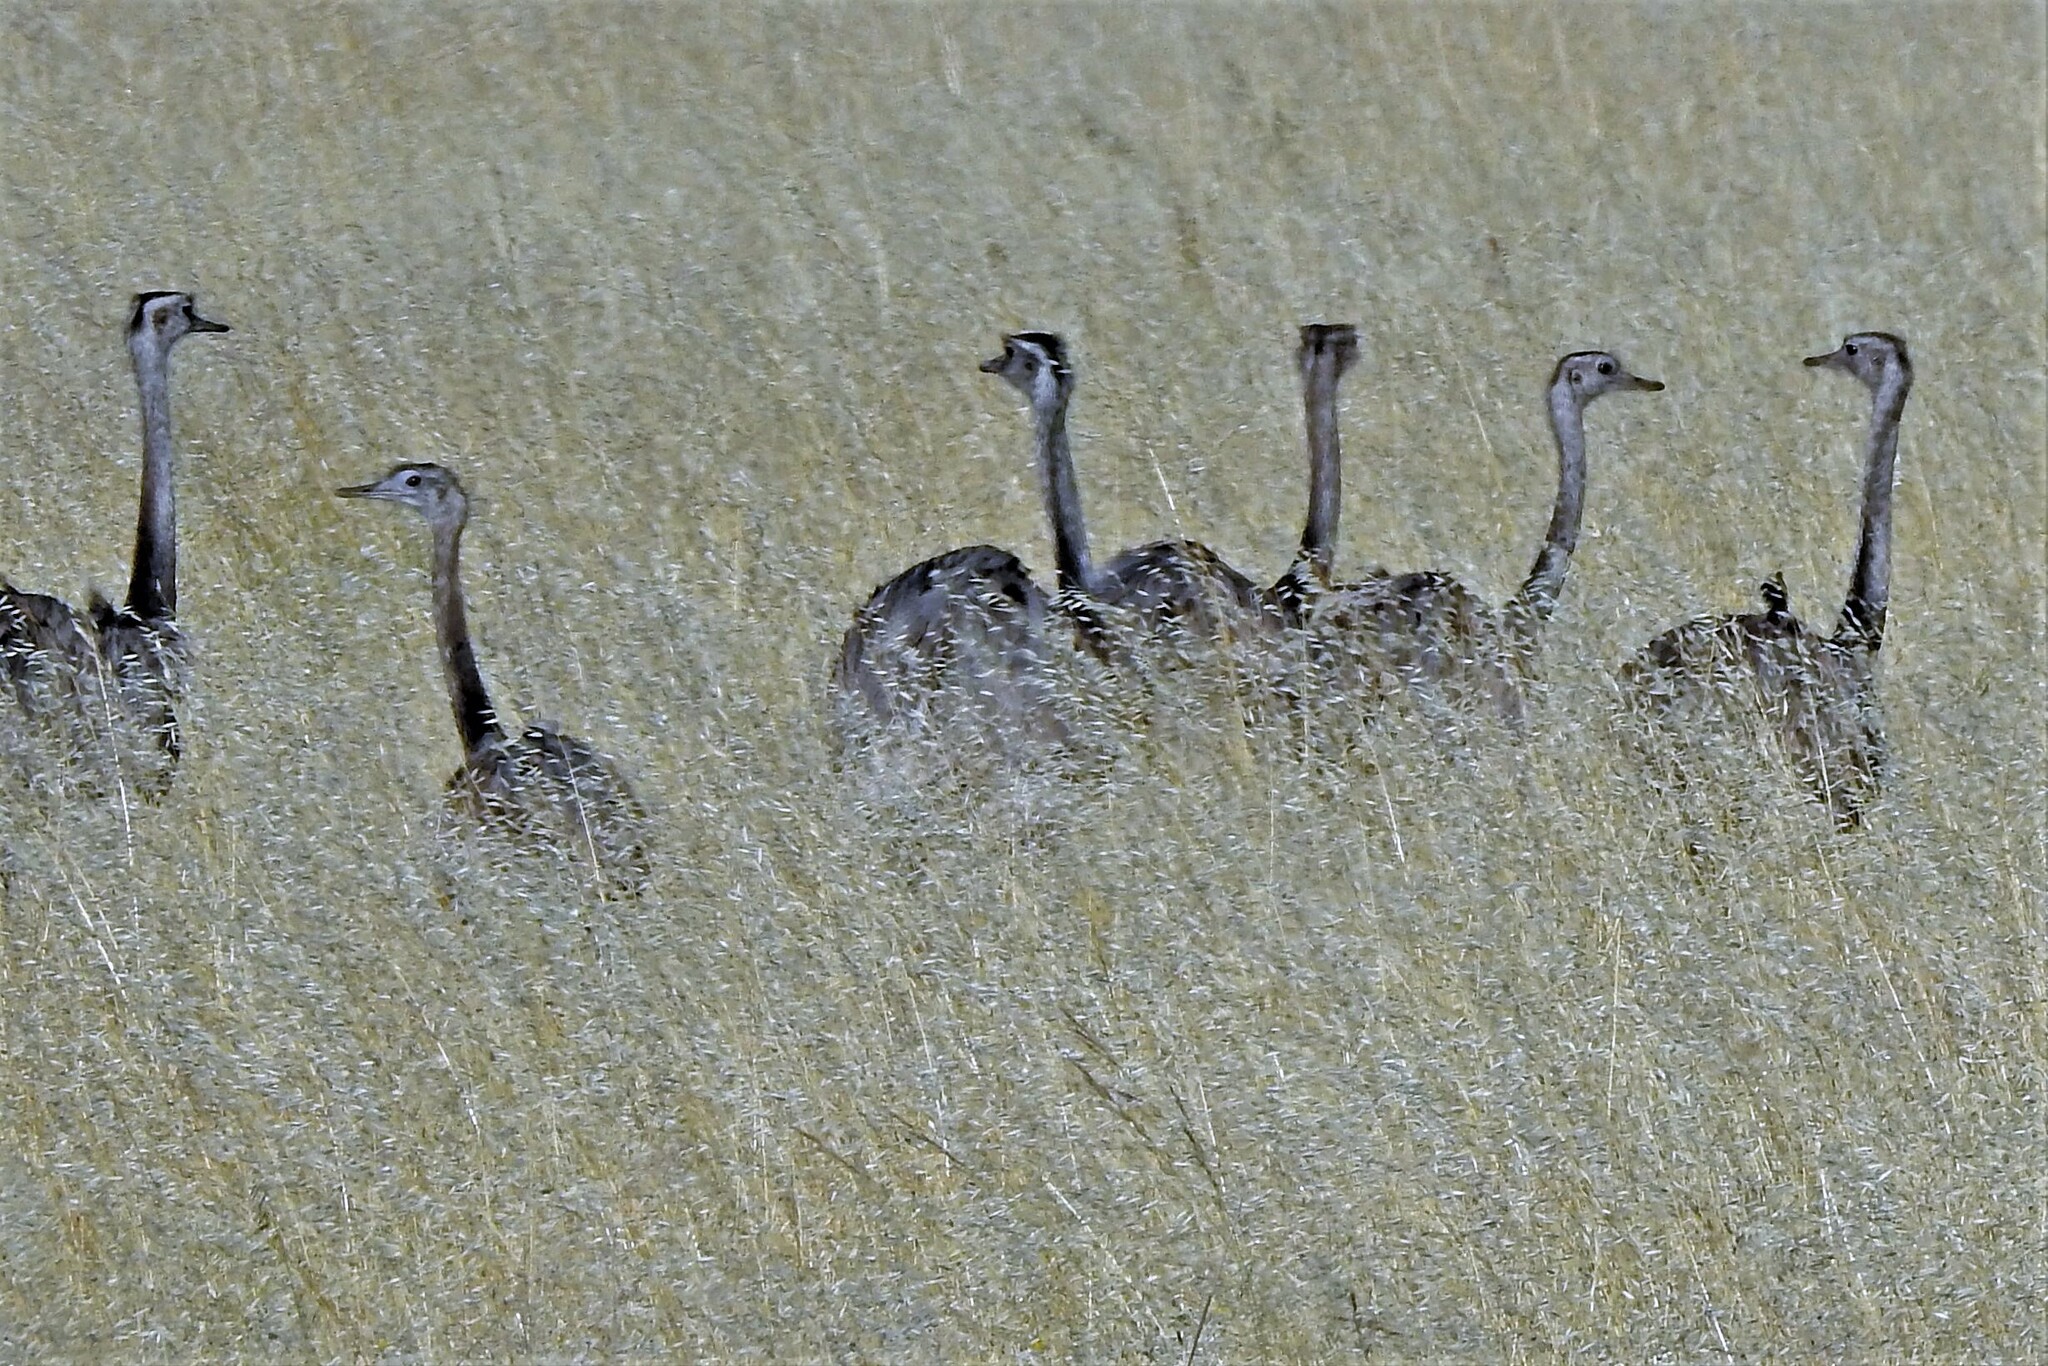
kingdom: Animalia
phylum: Chordata
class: Aves
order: Rheiformes
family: Rheidae
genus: Rhea
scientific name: Rhea americana
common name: Greater rhea
